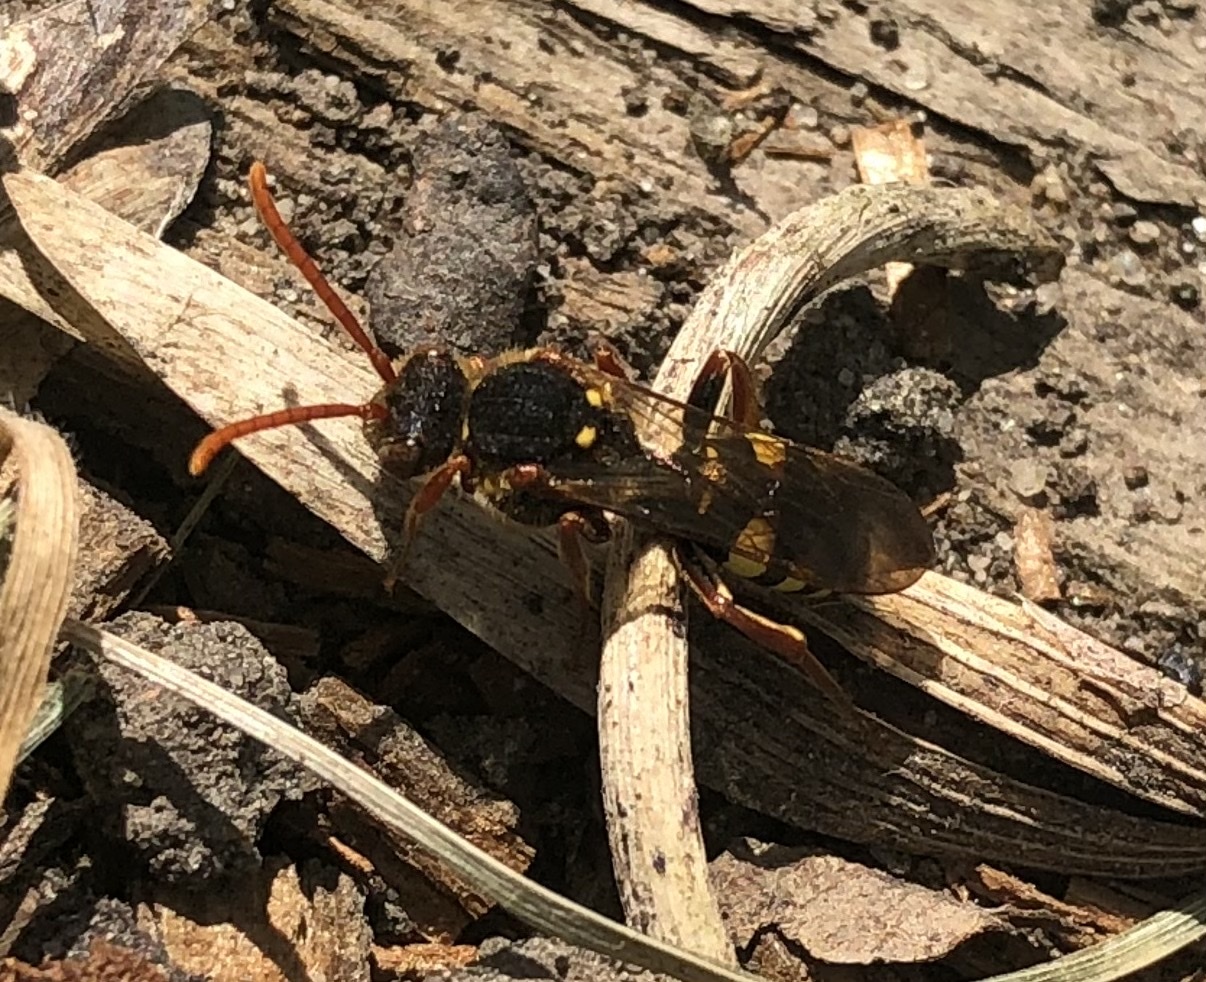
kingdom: Animalia
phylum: Arthropoda
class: Insecta
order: Hymenoptera
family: Apidae
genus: Nomada
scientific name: Nomada marshamella
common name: Marsham's nomad bee
